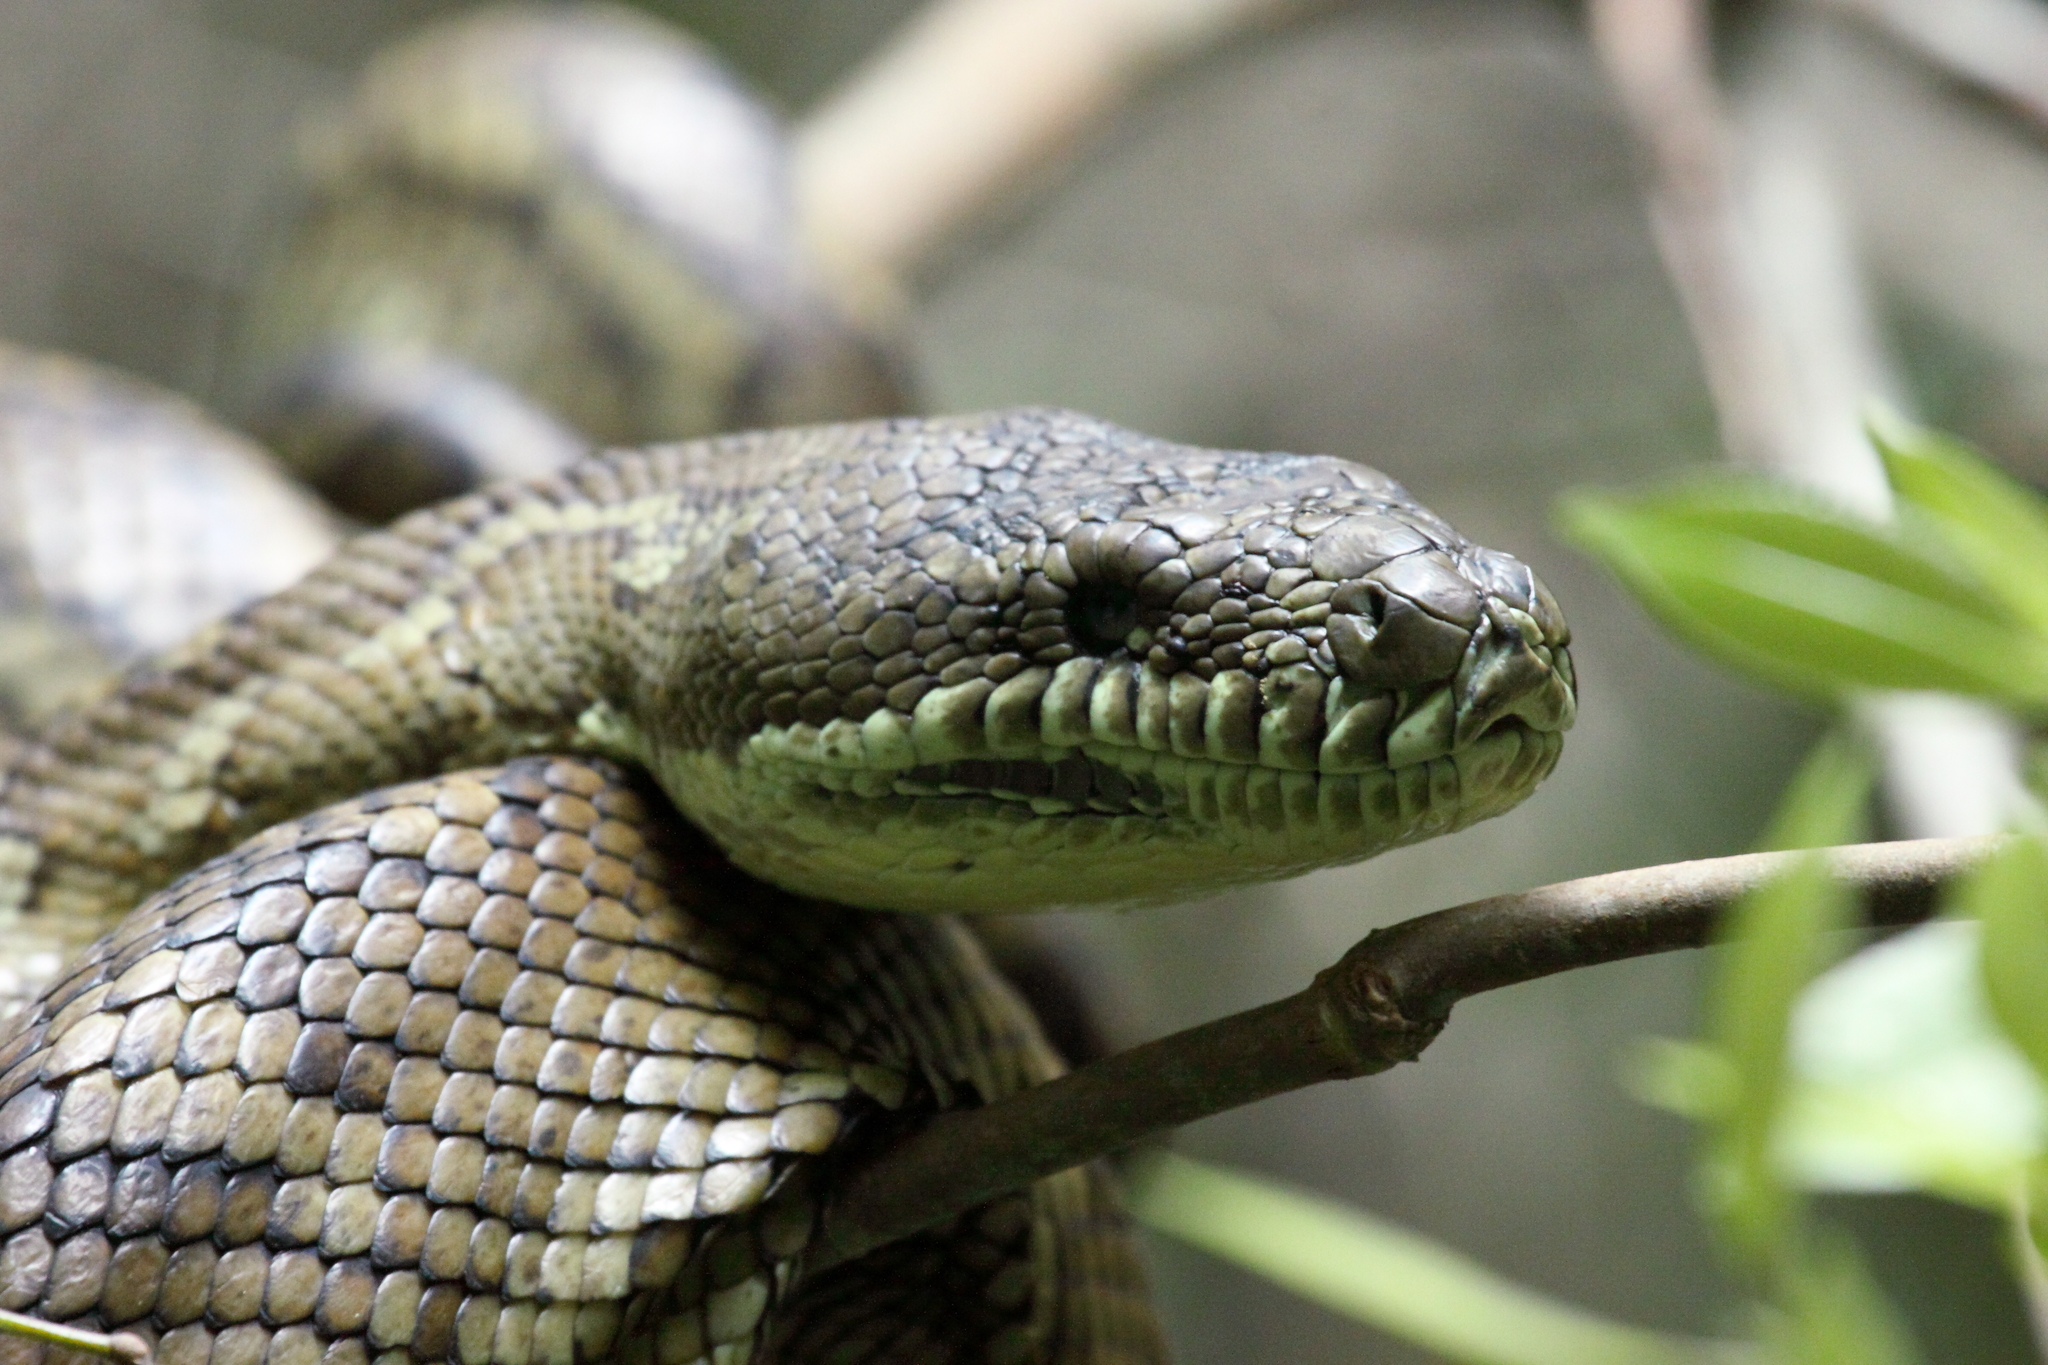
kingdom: Animalia
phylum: Chordata
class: Squamata
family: Pythonidae
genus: Morelia
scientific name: Morelia spilota
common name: Carpet python
